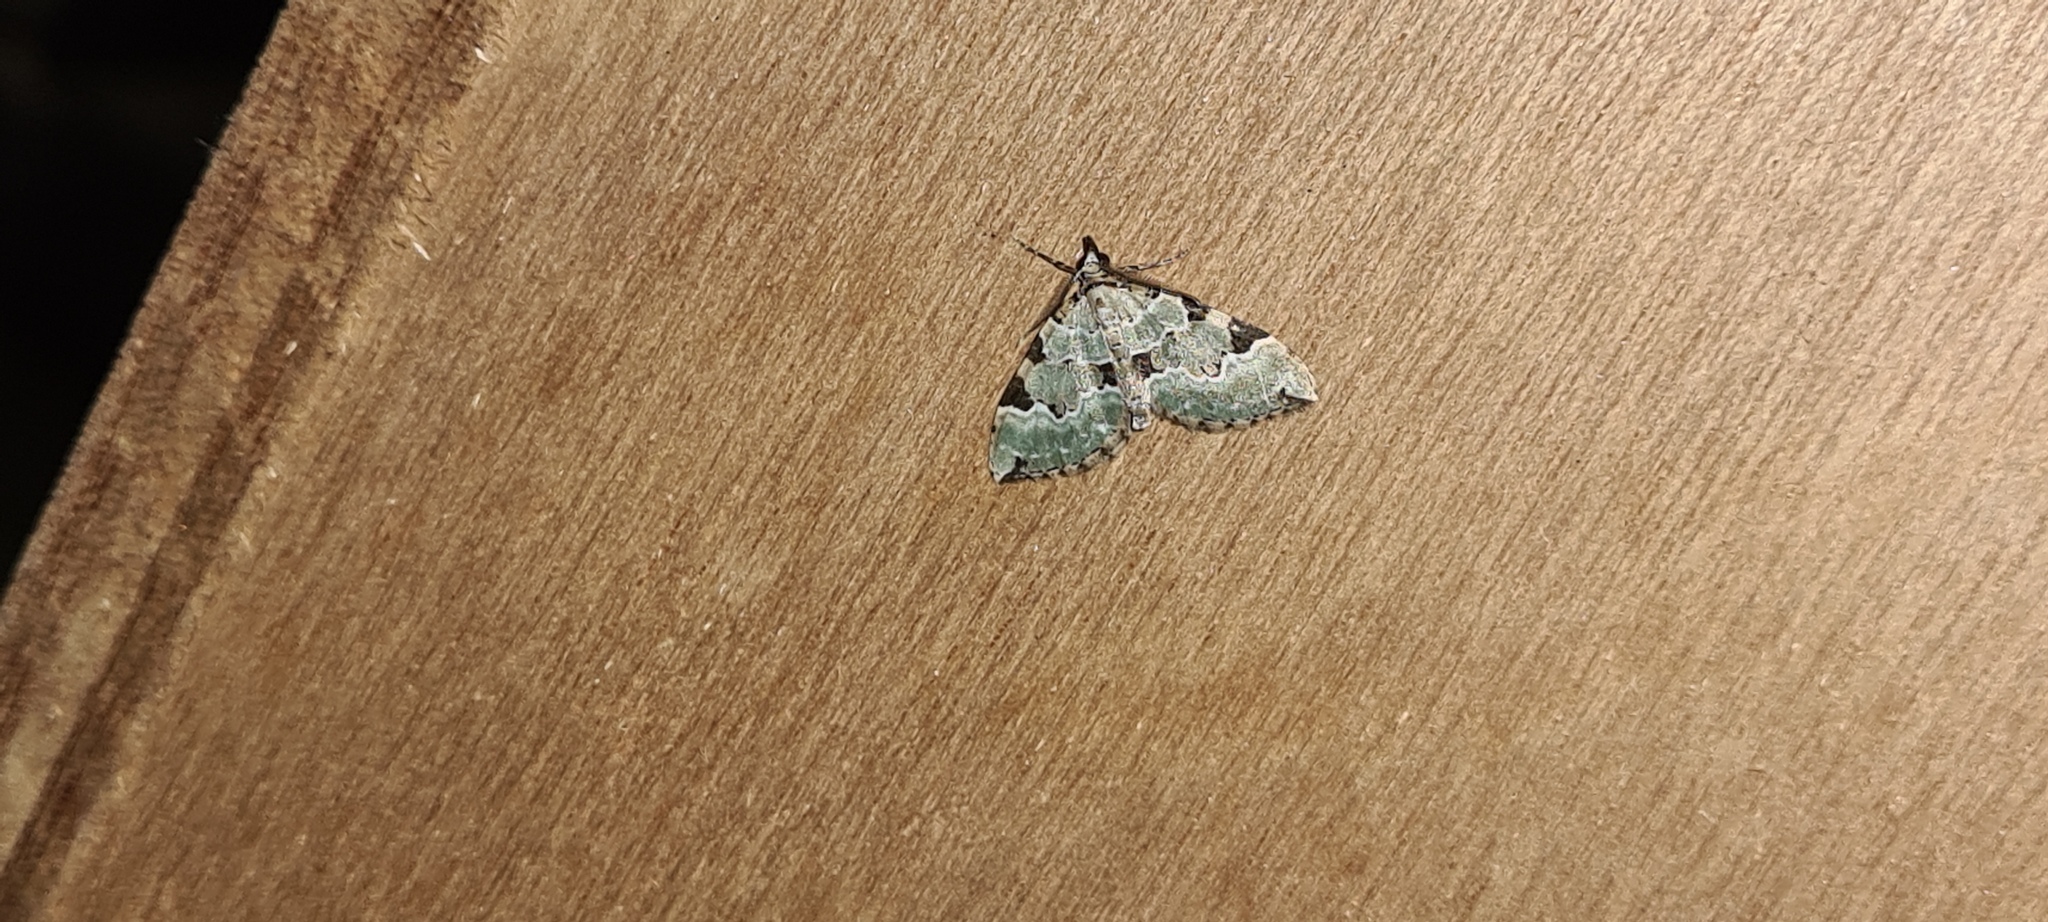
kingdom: Animalia
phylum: Arthropoda
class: Insecta
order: Lepidoptera
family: Geometridae
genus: Colostygia
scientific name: Colostygia pectinataria
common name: Green carpet
